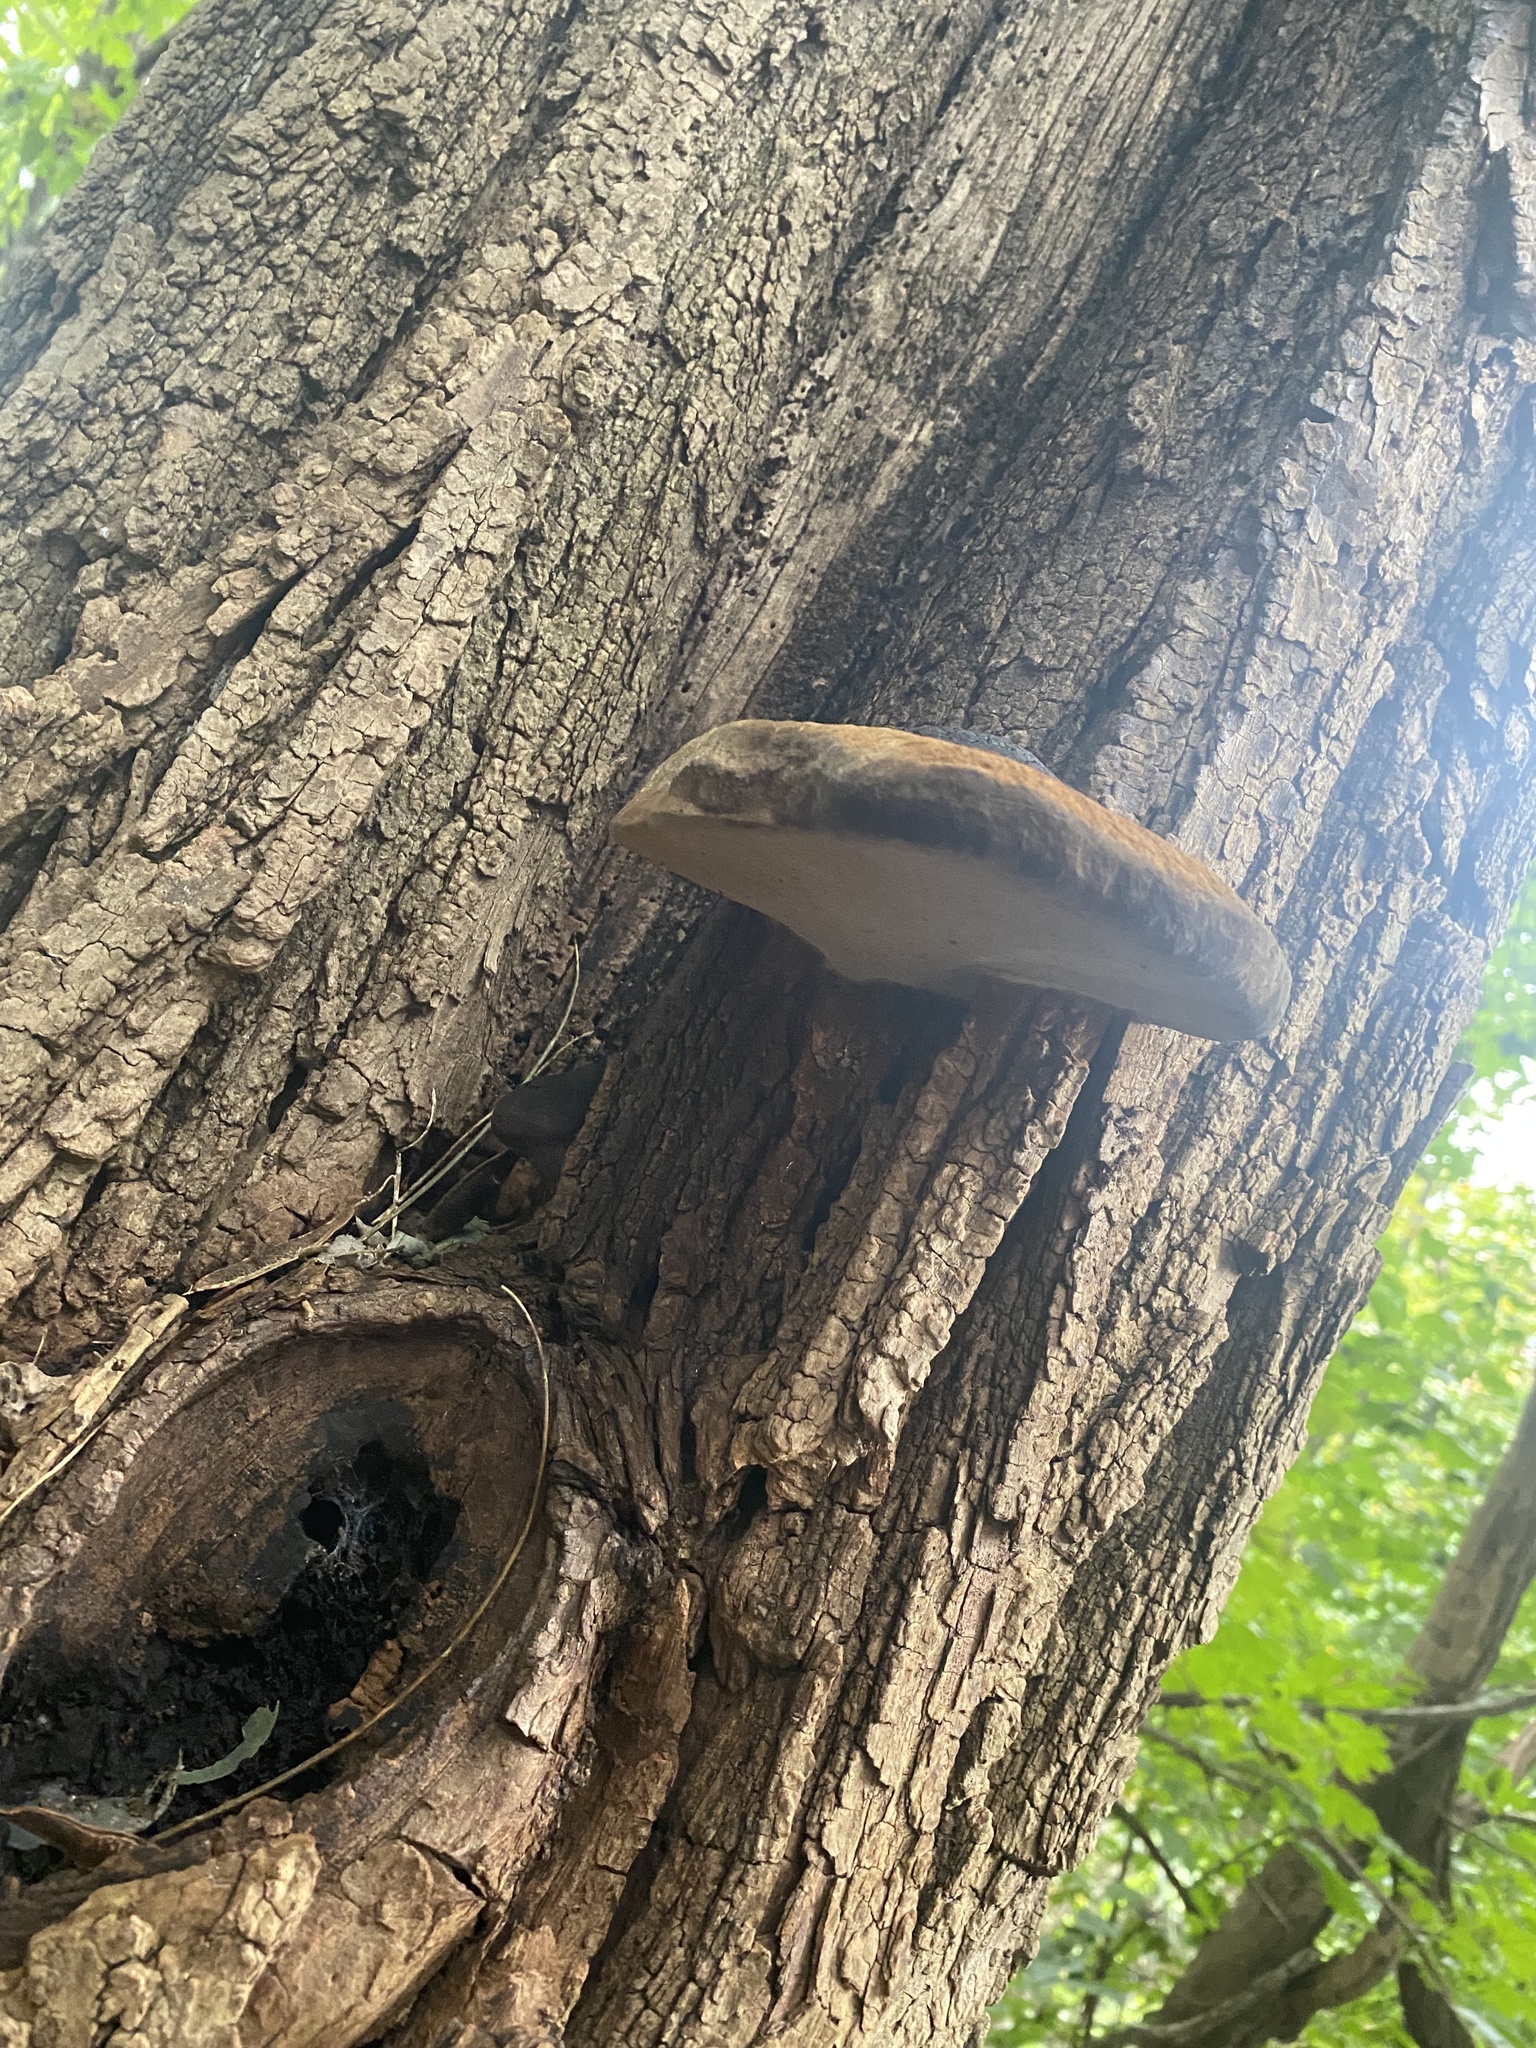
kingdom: Fungi
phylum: Basidiomycota
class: Agaricomycetes
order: Hymenochaetales
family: Hymenochaetaceae
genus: Phellinus
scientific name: Phellinus robiniae
